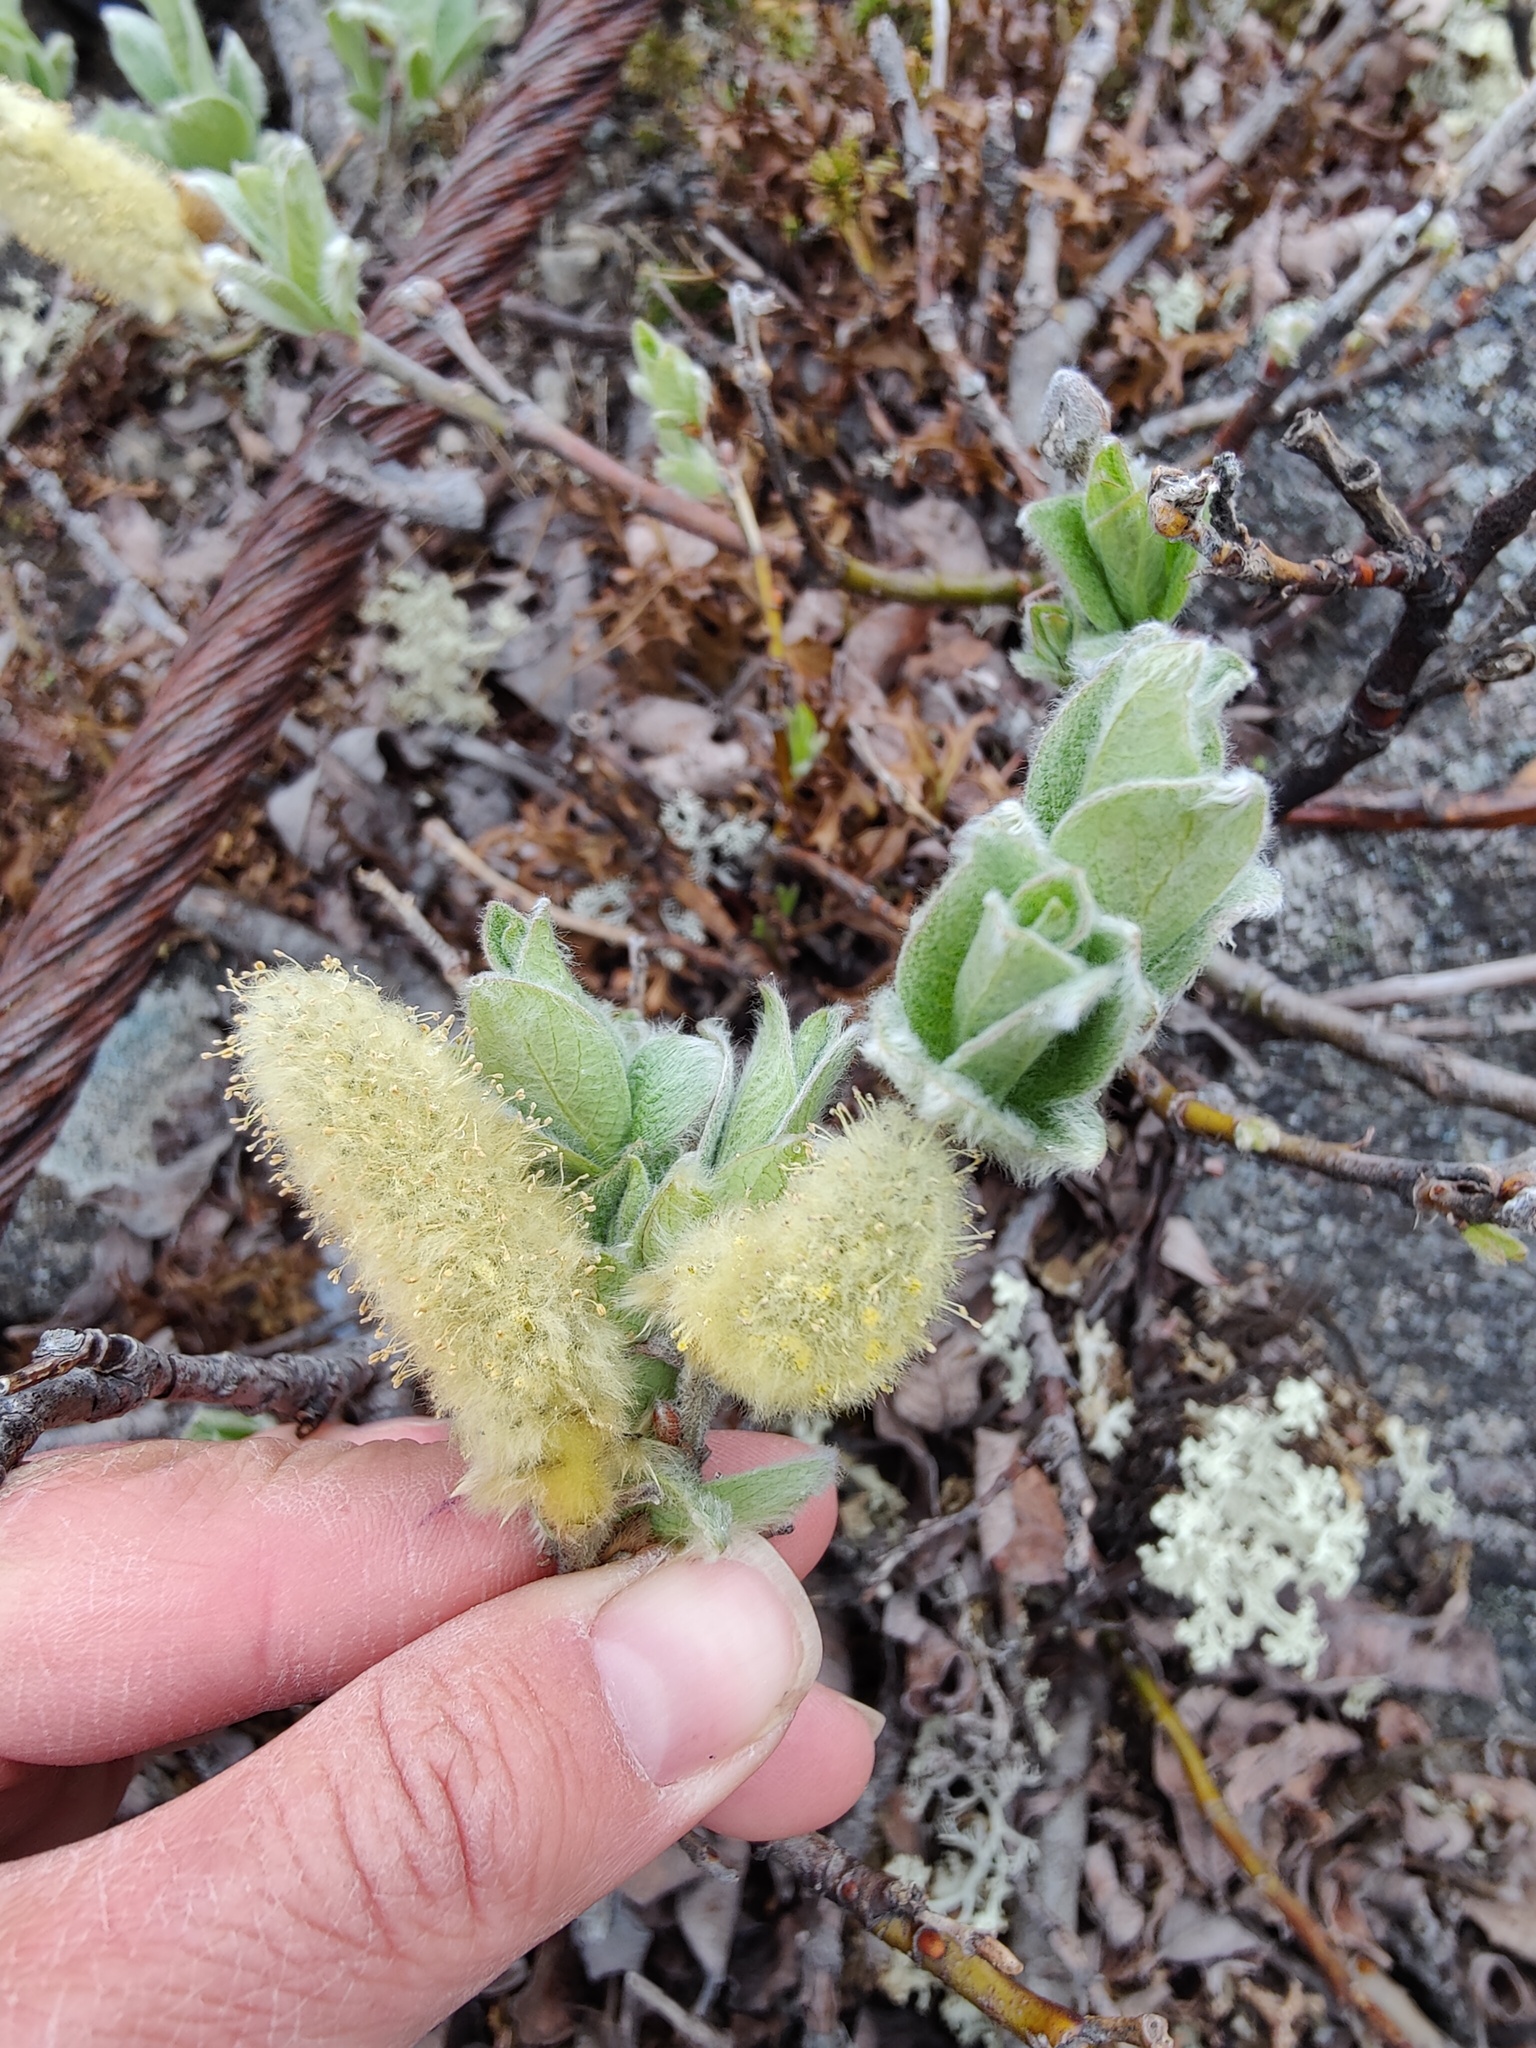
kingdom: Plantae
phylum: Tracheophyta
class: Magnoliopsida
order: Malpighiales
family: Salicaceae
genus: Salix
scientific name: Salix lanata
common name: Woolly willow
